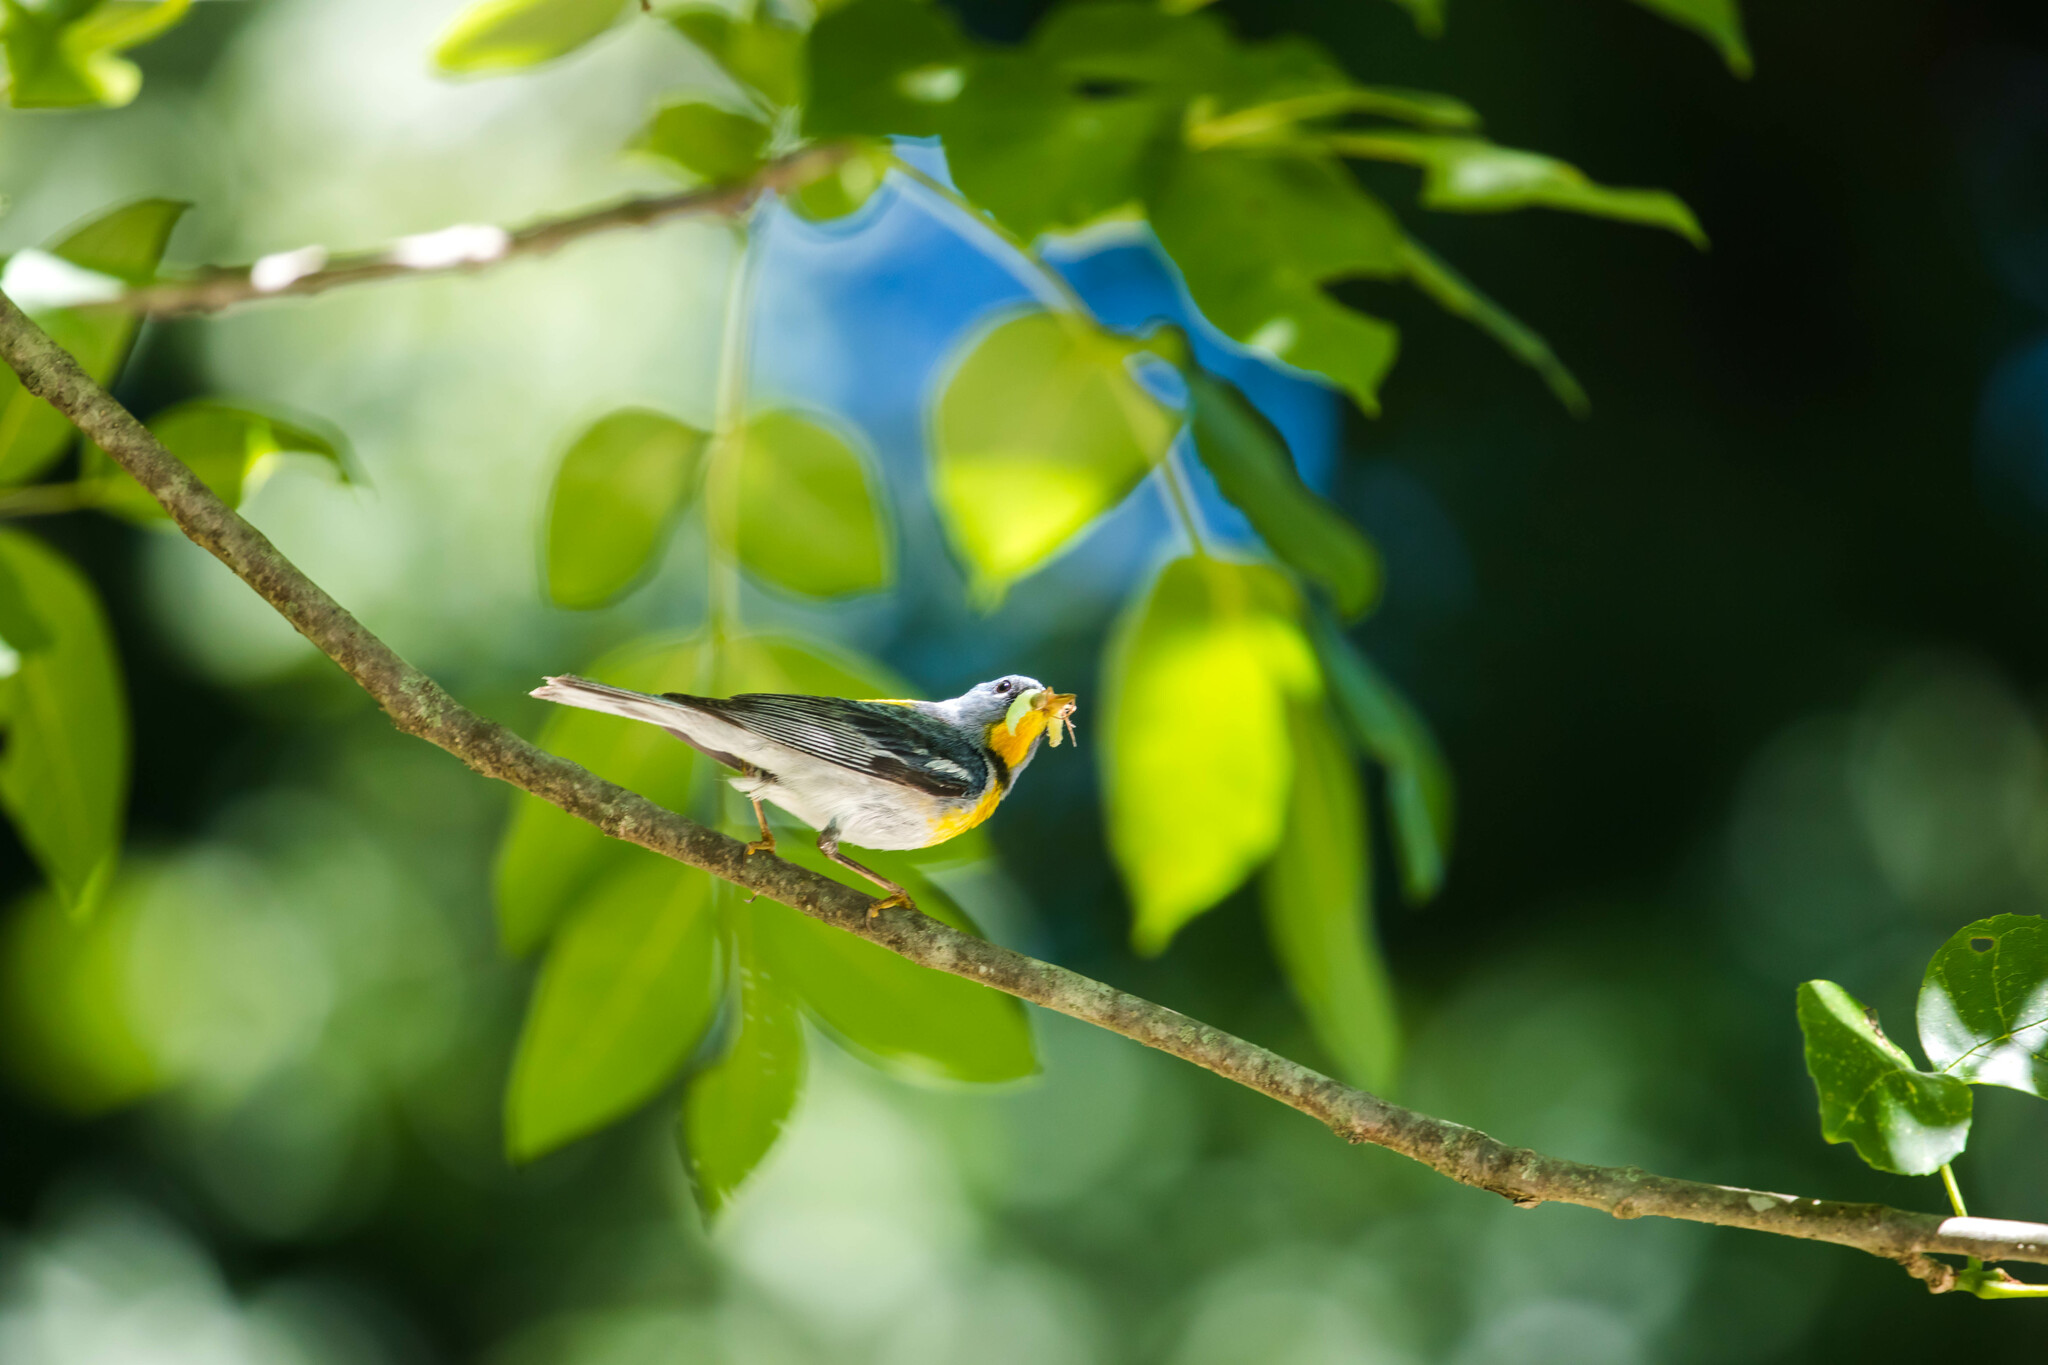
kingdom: Animalia
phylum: Chordata
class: Aves
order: Passeriformes
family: Parulidae
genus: Setophaga
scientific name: Setophaga americana
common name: Northern parula
